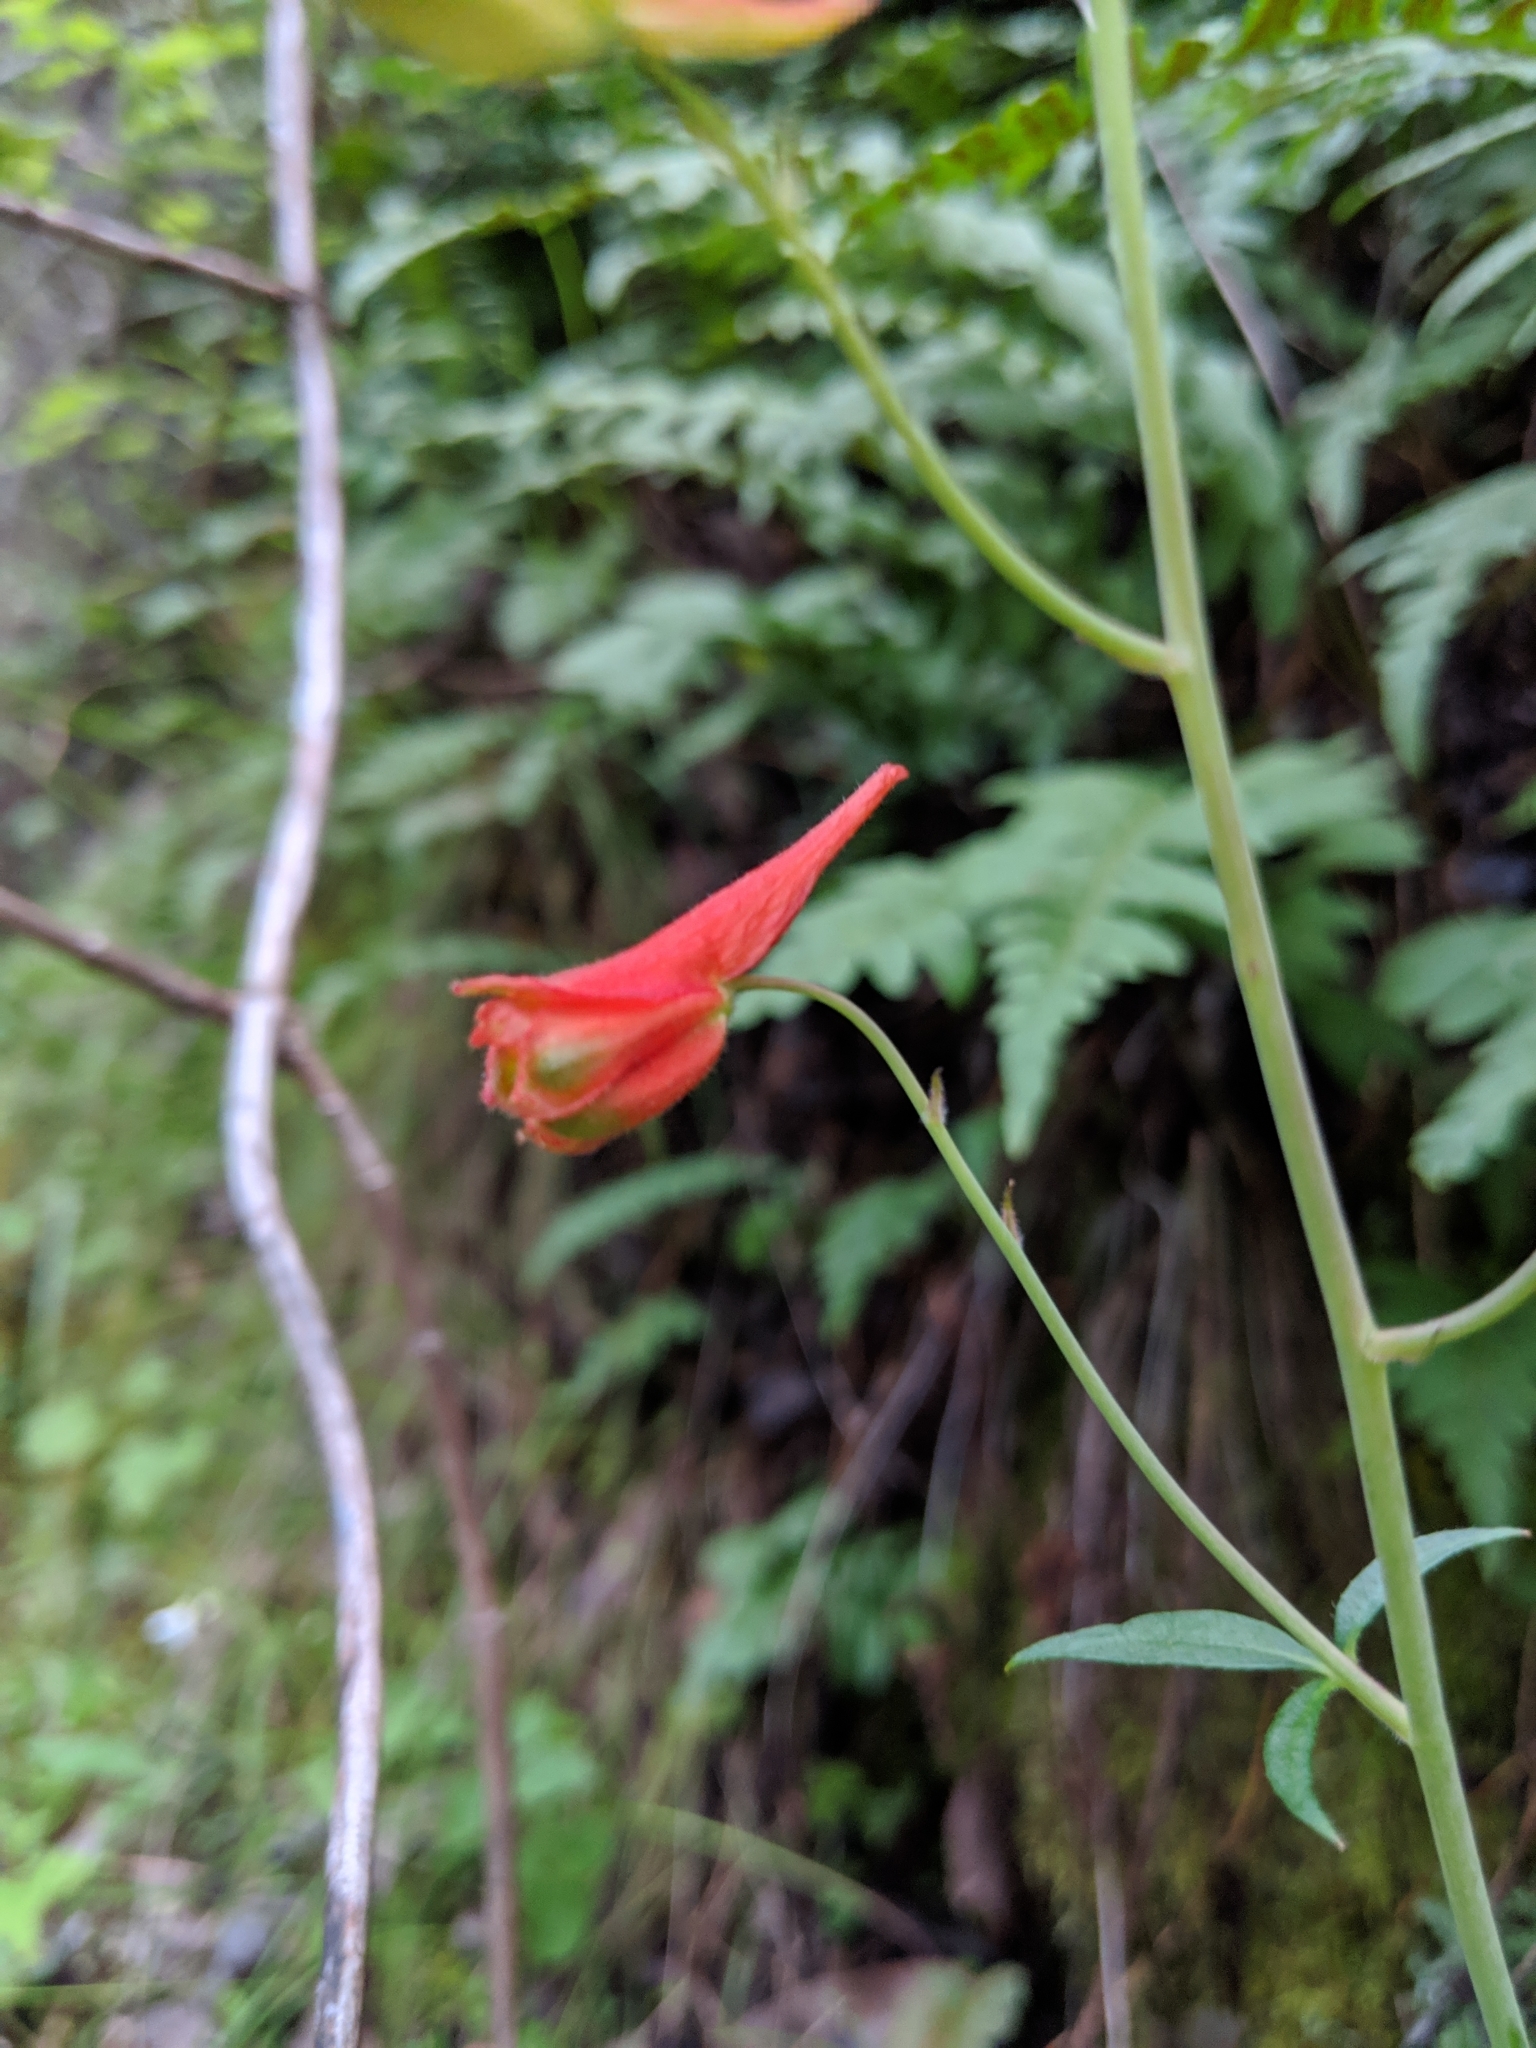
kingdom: Plantae
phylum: Tracheophyta
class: Magnoliopsida
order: Ranunculales
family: Ranunculaceae
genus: Delphinium
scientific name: Delphinium nudicaule
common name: Red larkspur
